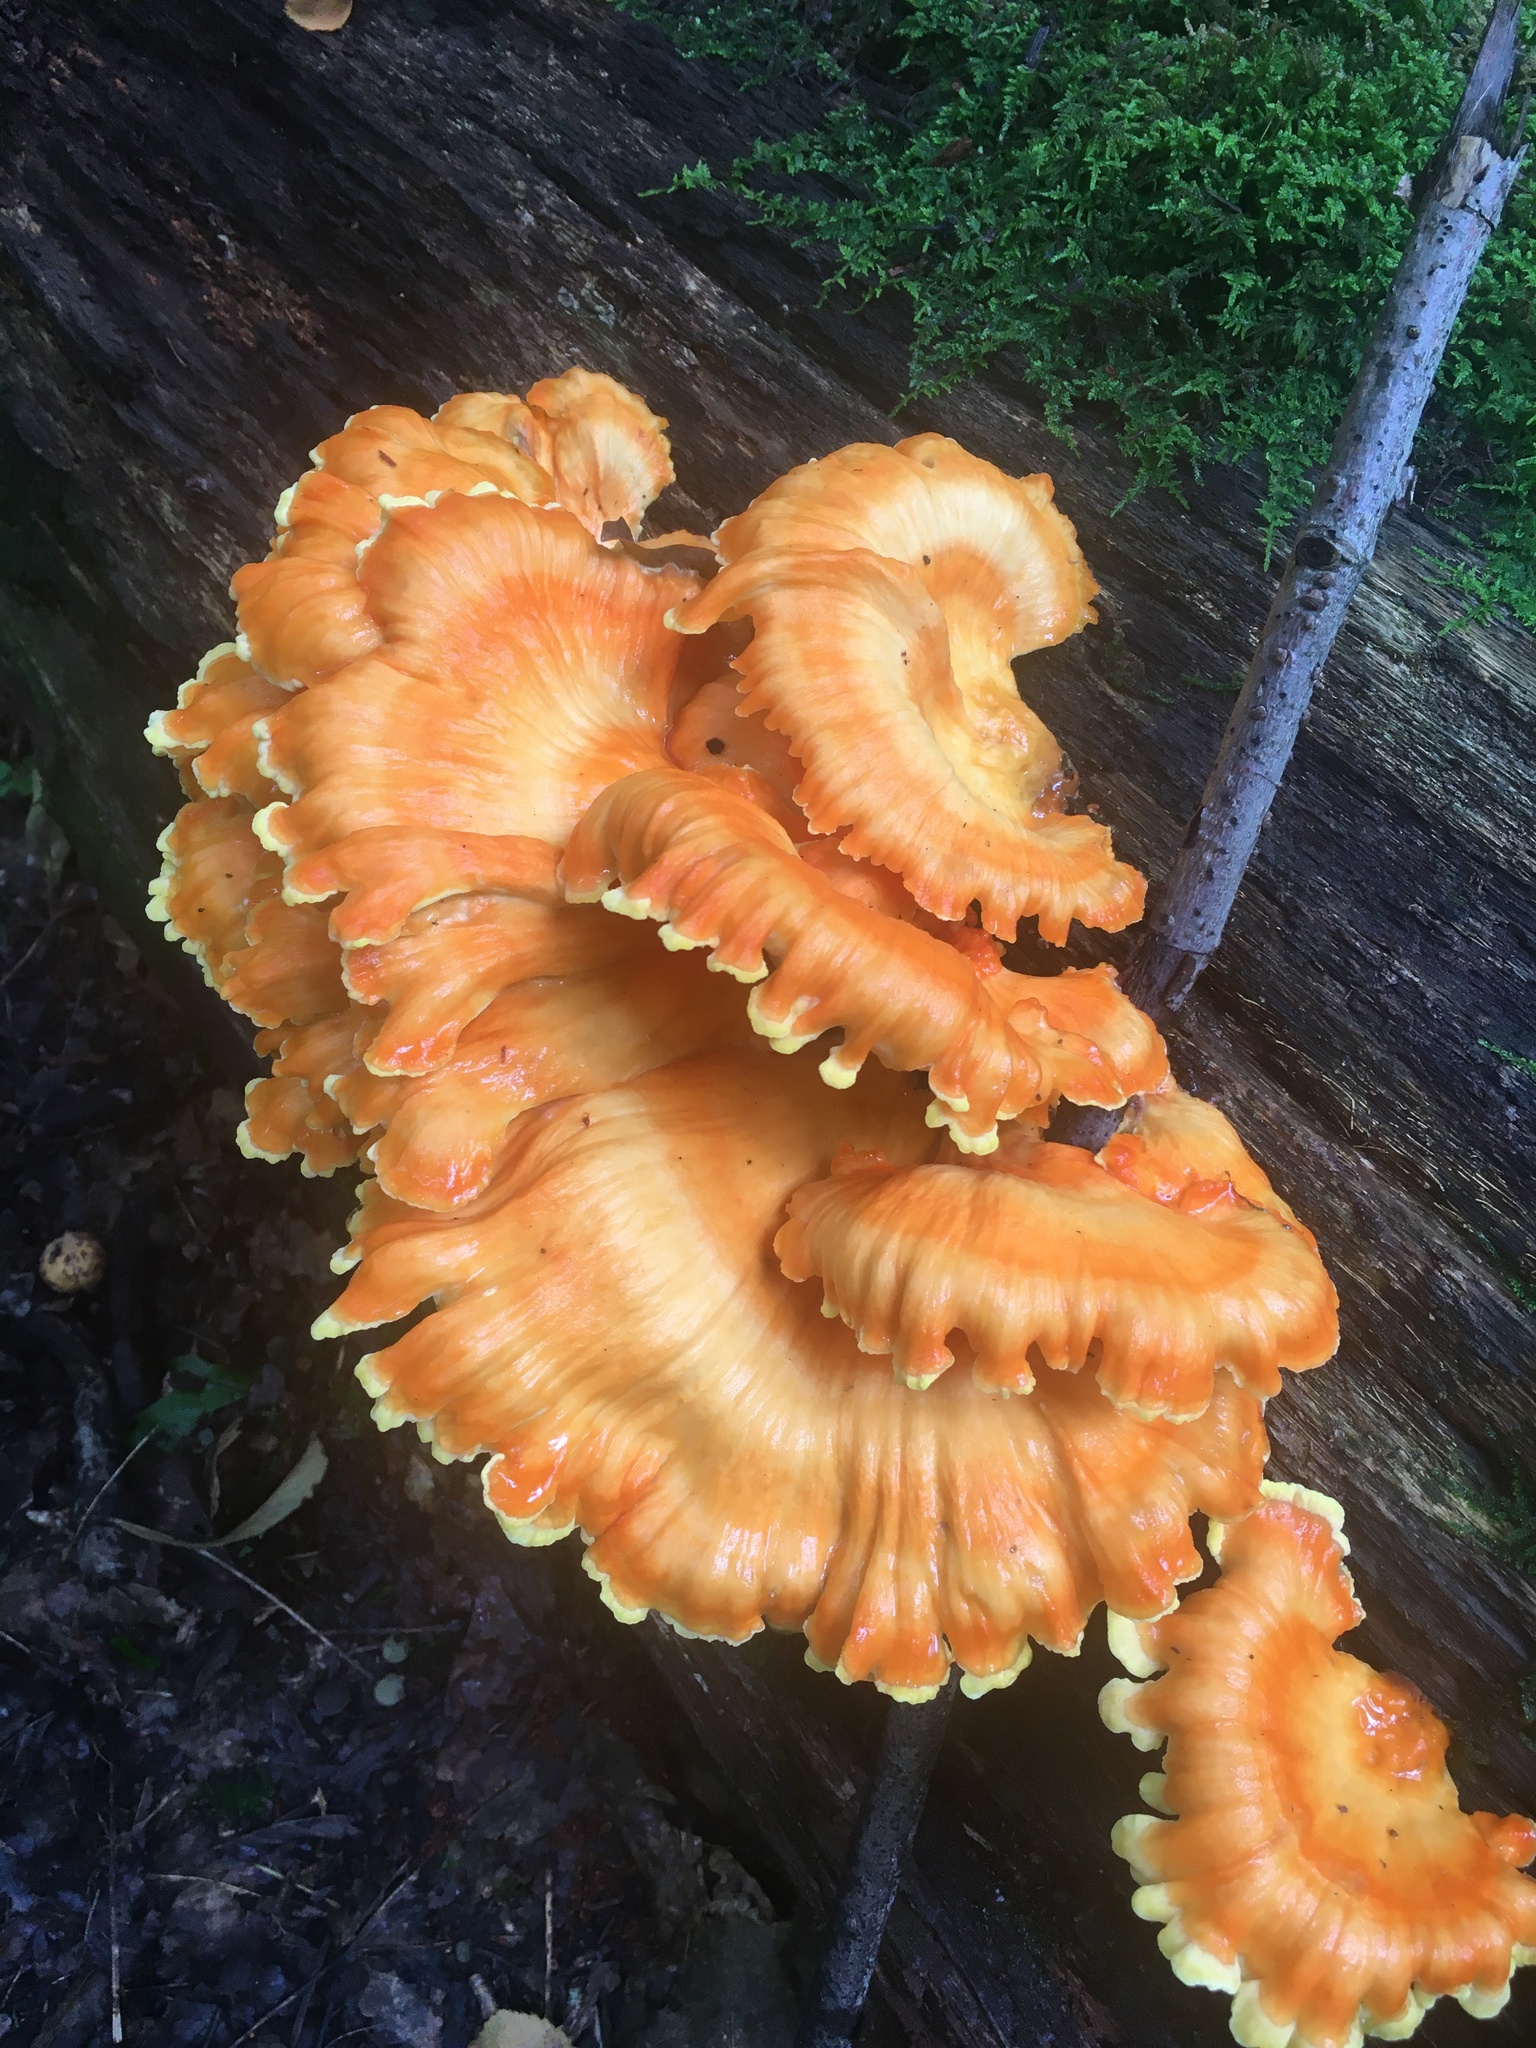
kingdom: Fungi
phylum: Basidiomycota
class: Agaricomycetes
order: Polyporales
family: Laetiporaceae
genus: Laetiporus
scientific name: Laetiporus sulphureus
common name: Chicken of the woods
